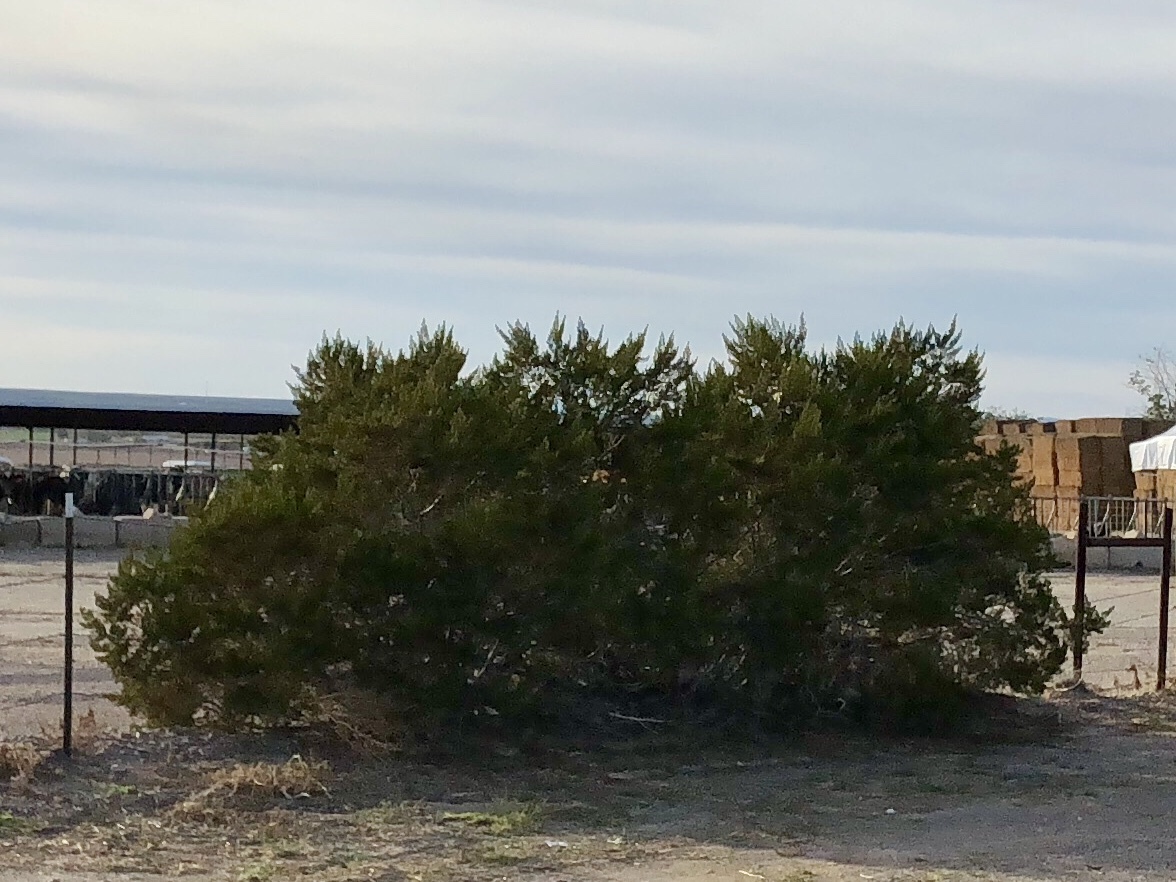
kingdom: Plantae
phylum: Tracheophyta
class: Magnoliopsida
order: Zygophyllales
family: Zygophyllaceae
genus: Larrea
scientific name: Larrea tridentata
